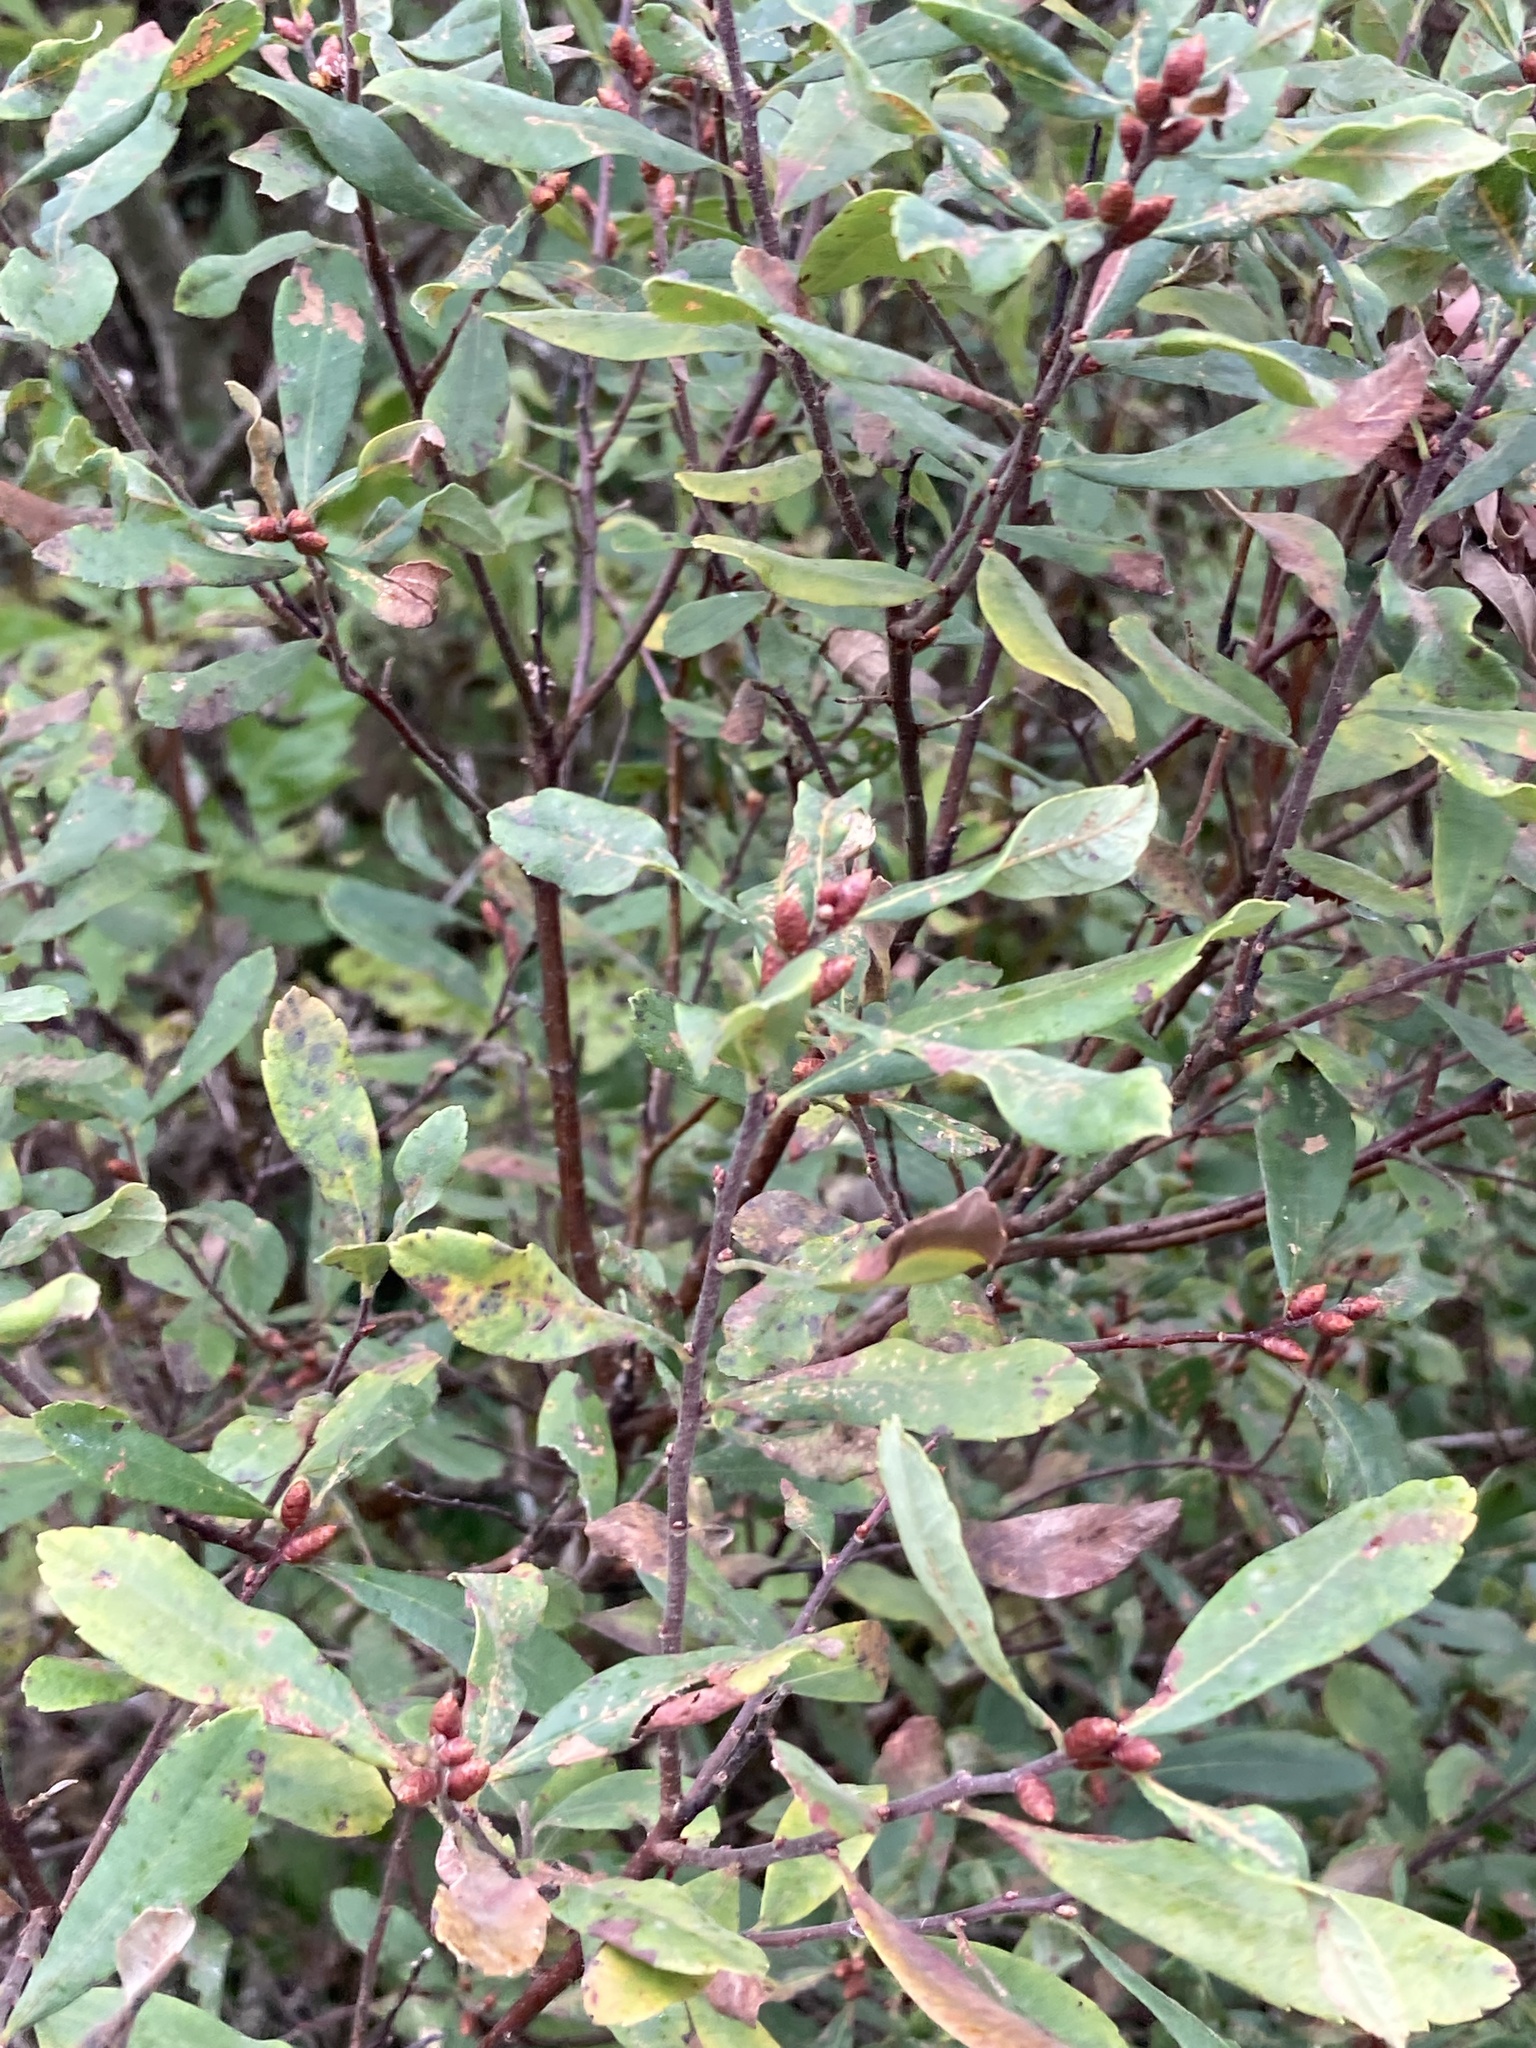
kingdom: Plantae
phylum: Tracheophyta
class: Magnoliopsida
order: Fagales
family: Myricaceae
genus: Myrica
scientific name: Myrica gale
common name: Sweet gale
